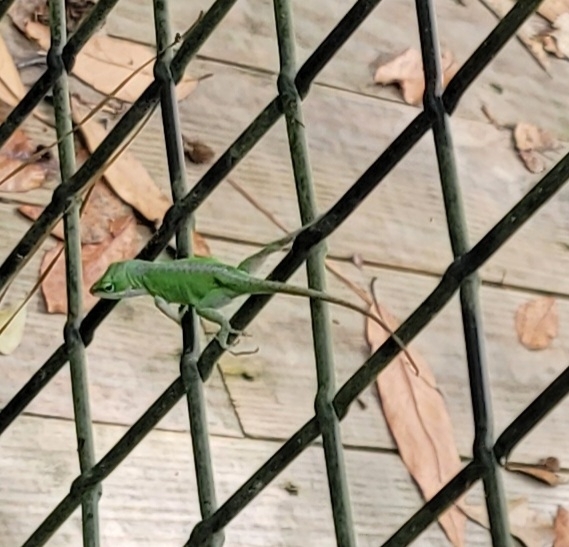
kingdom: Animalia
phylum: Chordata
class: Squamata
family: Dactyloidae
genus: Anolis
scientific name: Anolis carolinensis
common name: Green anole
